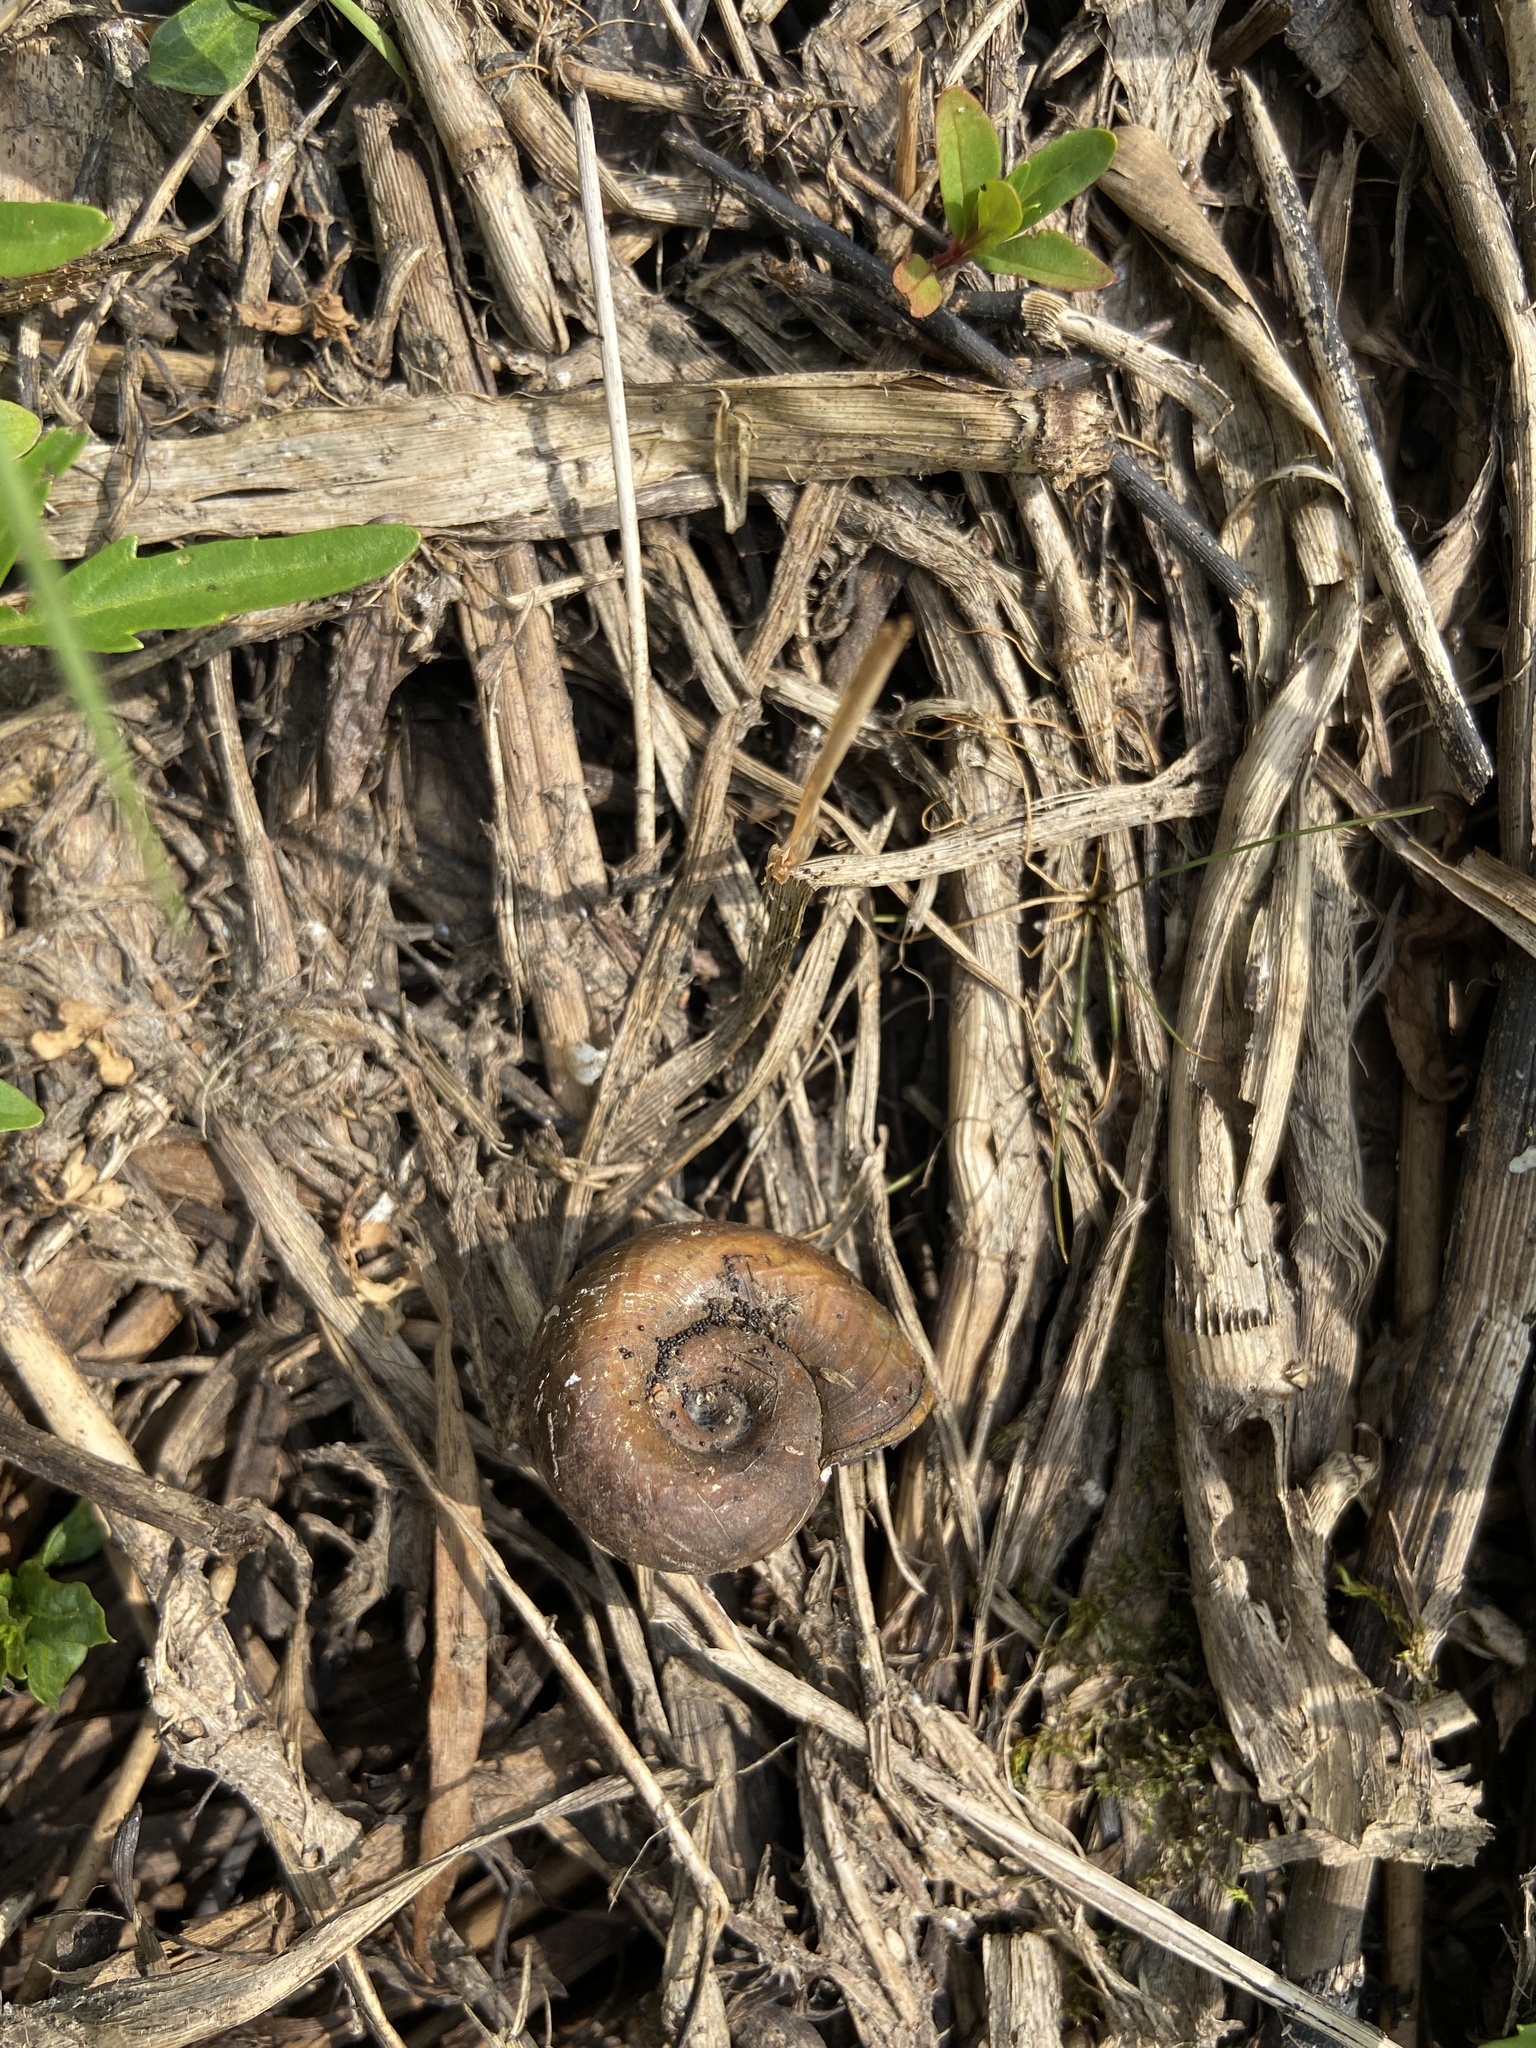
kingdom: Animalia
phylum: Mollusca
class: Gastropoda
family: Planorbidae
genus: Planorbarius
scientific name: Planorbarius corneus
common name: Great ramshorn
